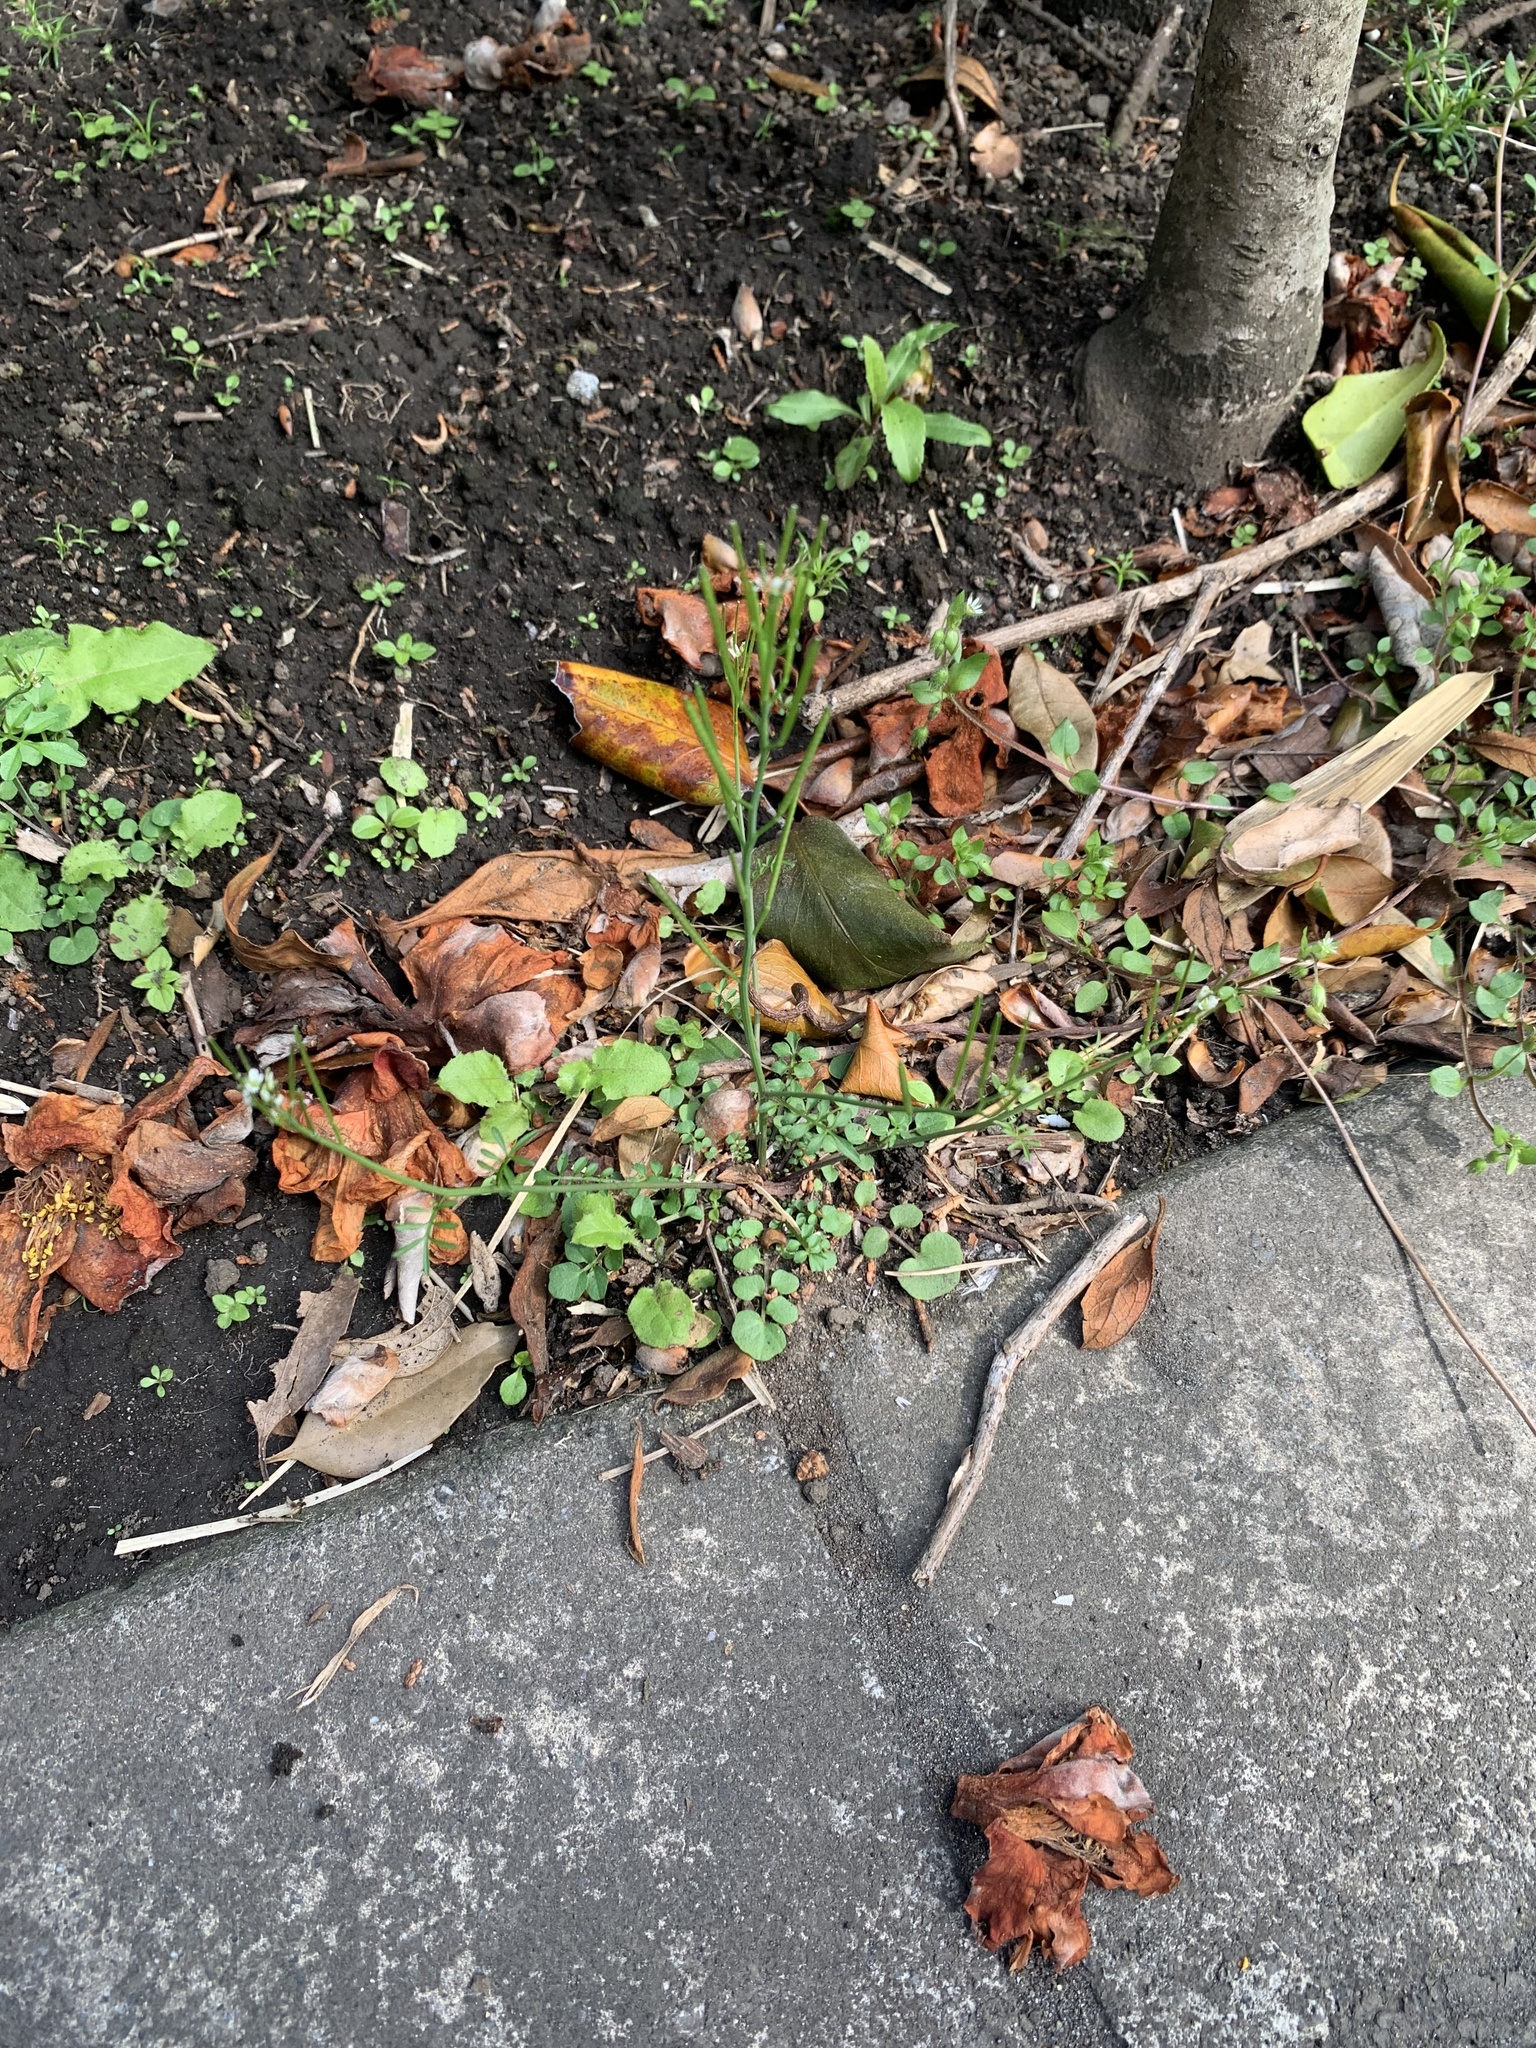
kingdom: Plantae
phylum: Tracheophyta
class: Magnoliopsida
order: Brassicales
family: Brassicaceae
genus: Cardamine
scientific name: Cardamine hirsuta
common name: Hairy bittercress
